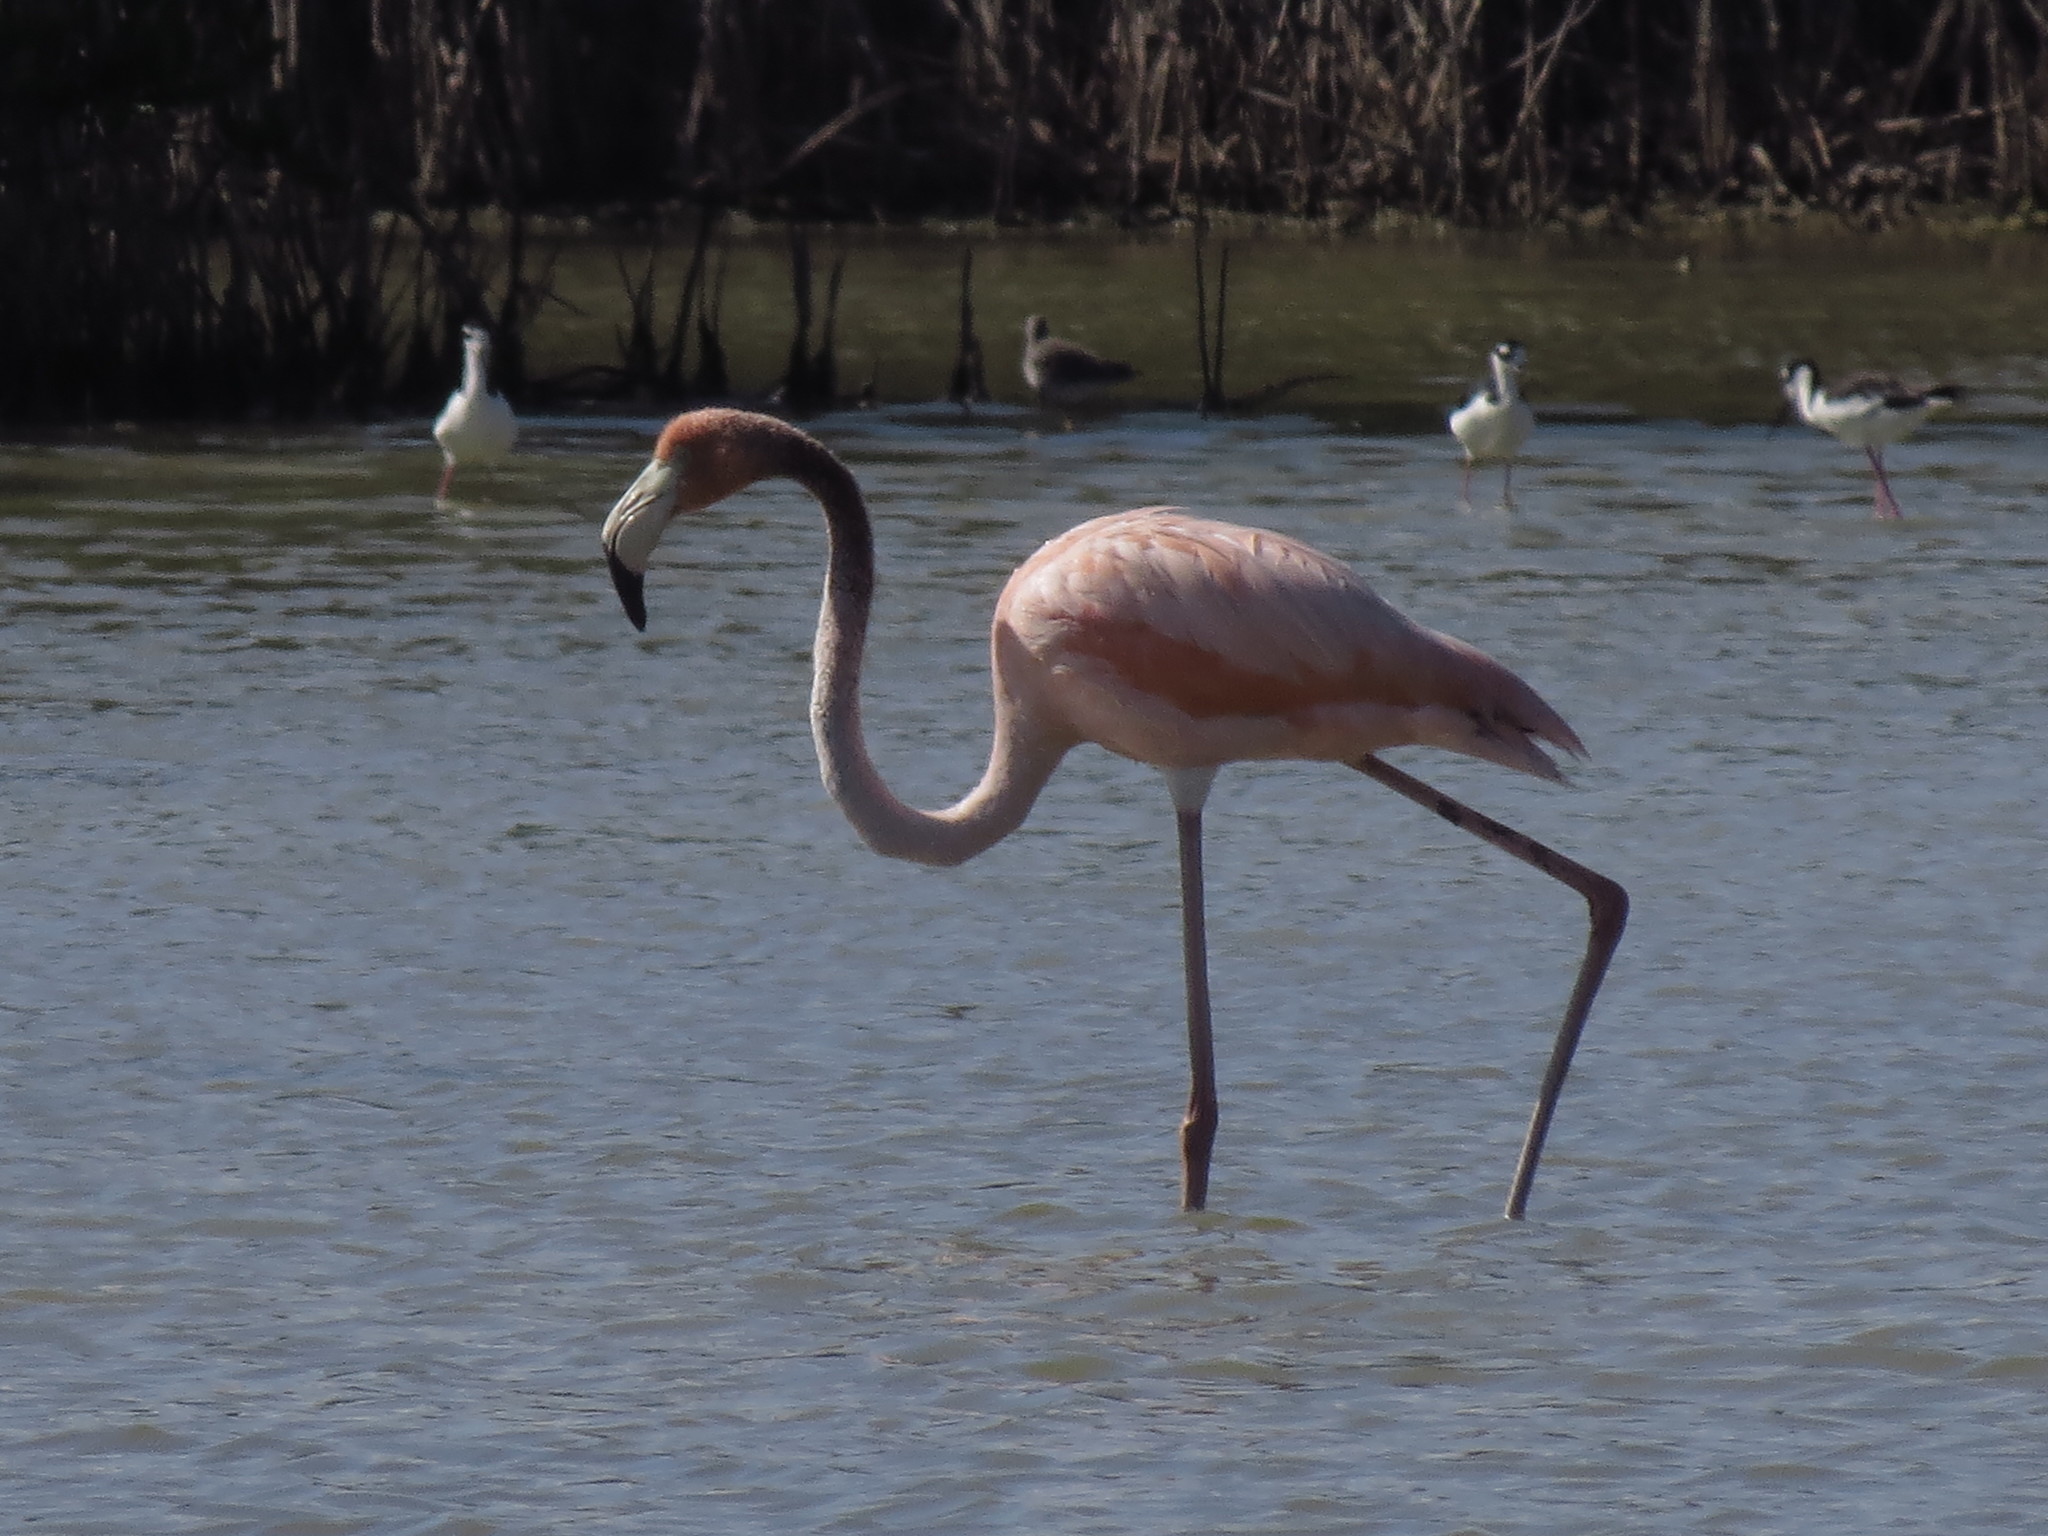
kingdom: Animalia
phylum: Chordata
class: Aves
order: Phoenicopteriformes
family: Phoenicopteridae
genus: Phoenicopterus
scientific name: Phoenicopterus ruber
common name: American flamingo
